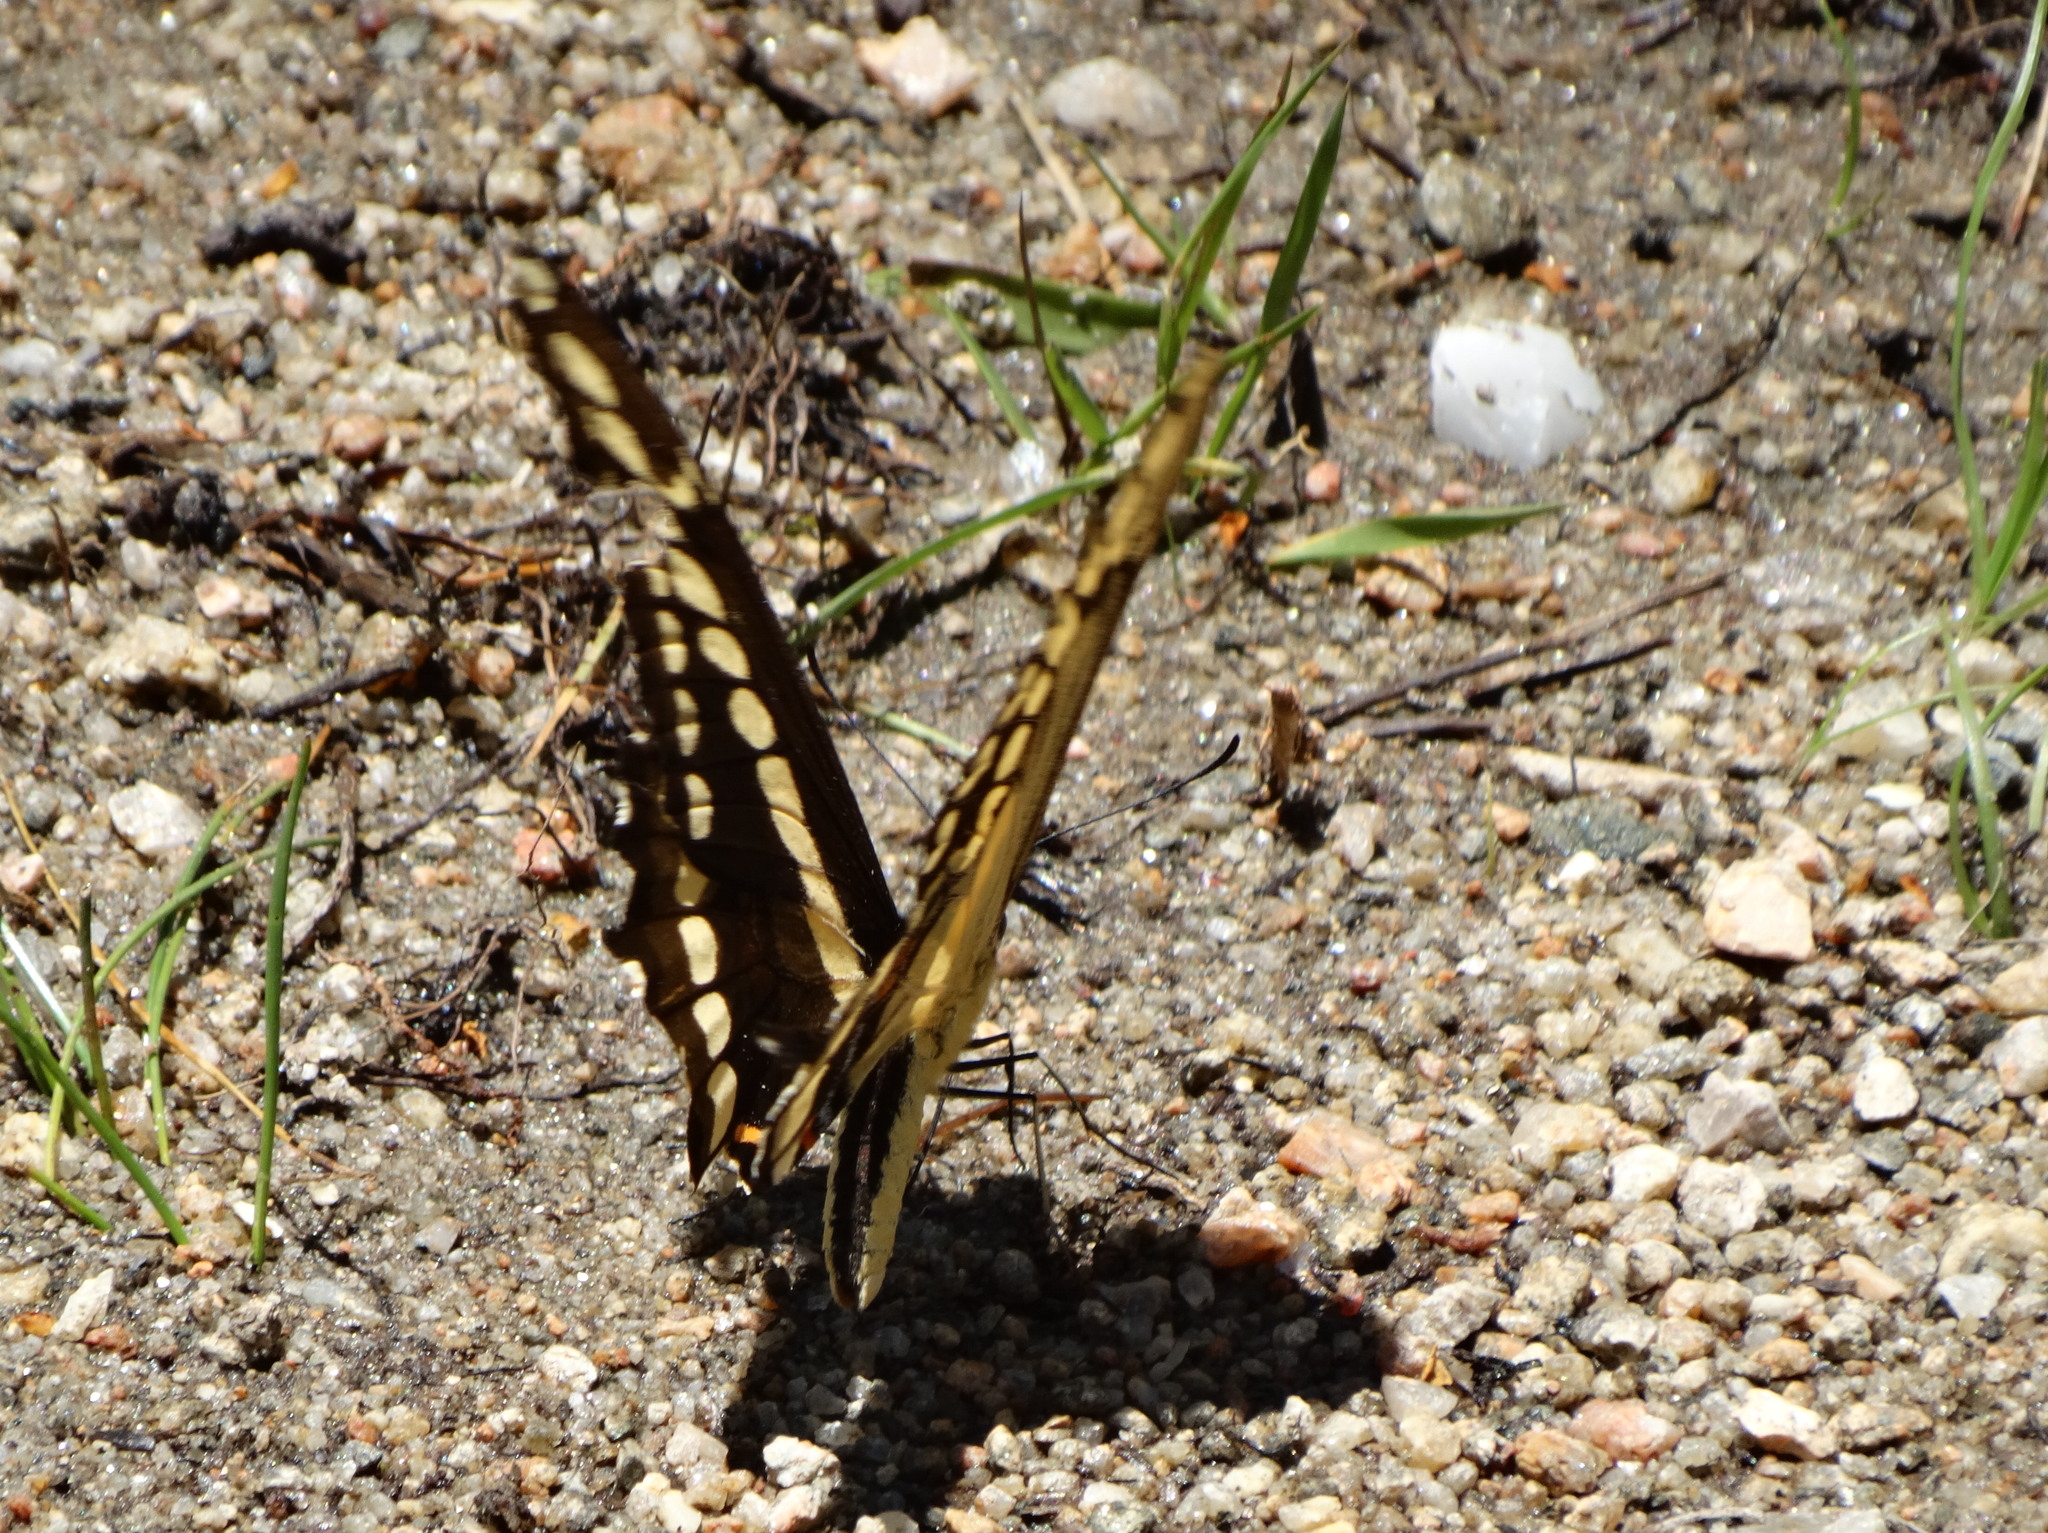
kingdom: Animalia
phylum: Arthropoda
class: Insecta
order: Lepidoptera
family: Papilionidae
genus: Papilio
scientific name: Papilio thoas
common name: King swallowtail
